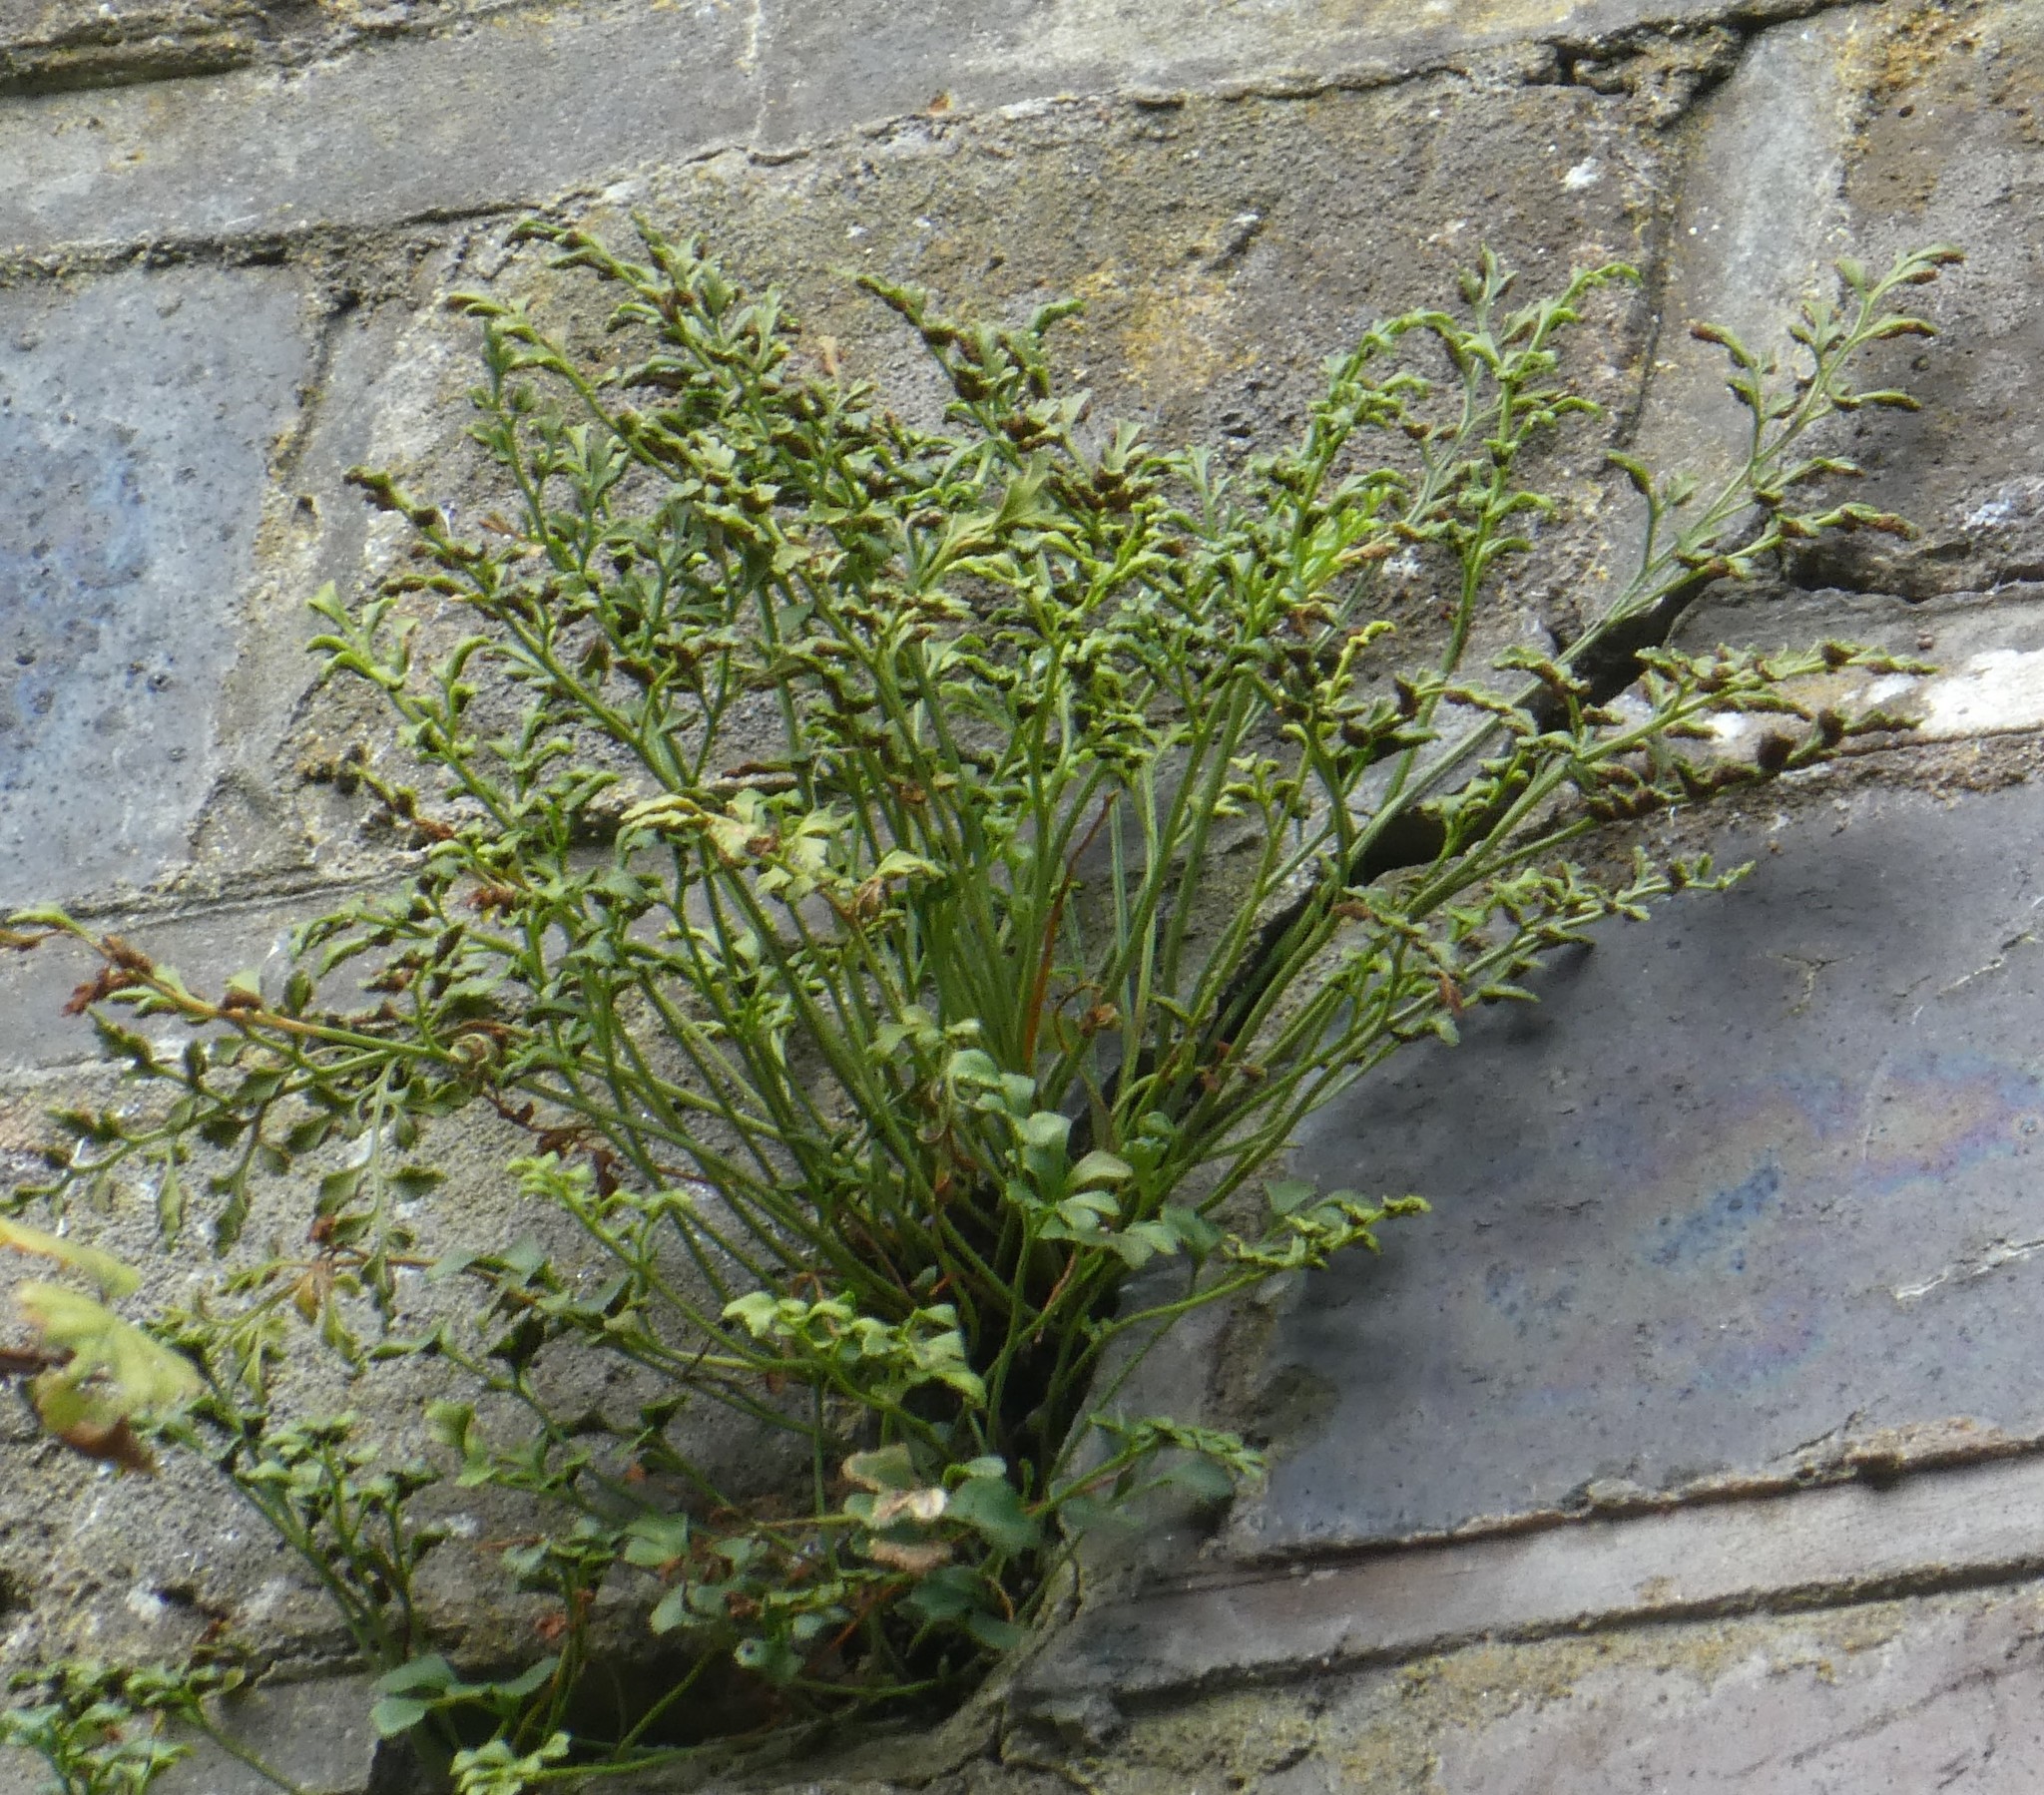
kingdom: Plantae
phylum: Tracheophyta
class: Polypodiopsida
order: Polypodiales
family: Aspleniaceae
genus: Asplenium
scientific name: Asplenium ruta-muraria
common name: Wall-rue
